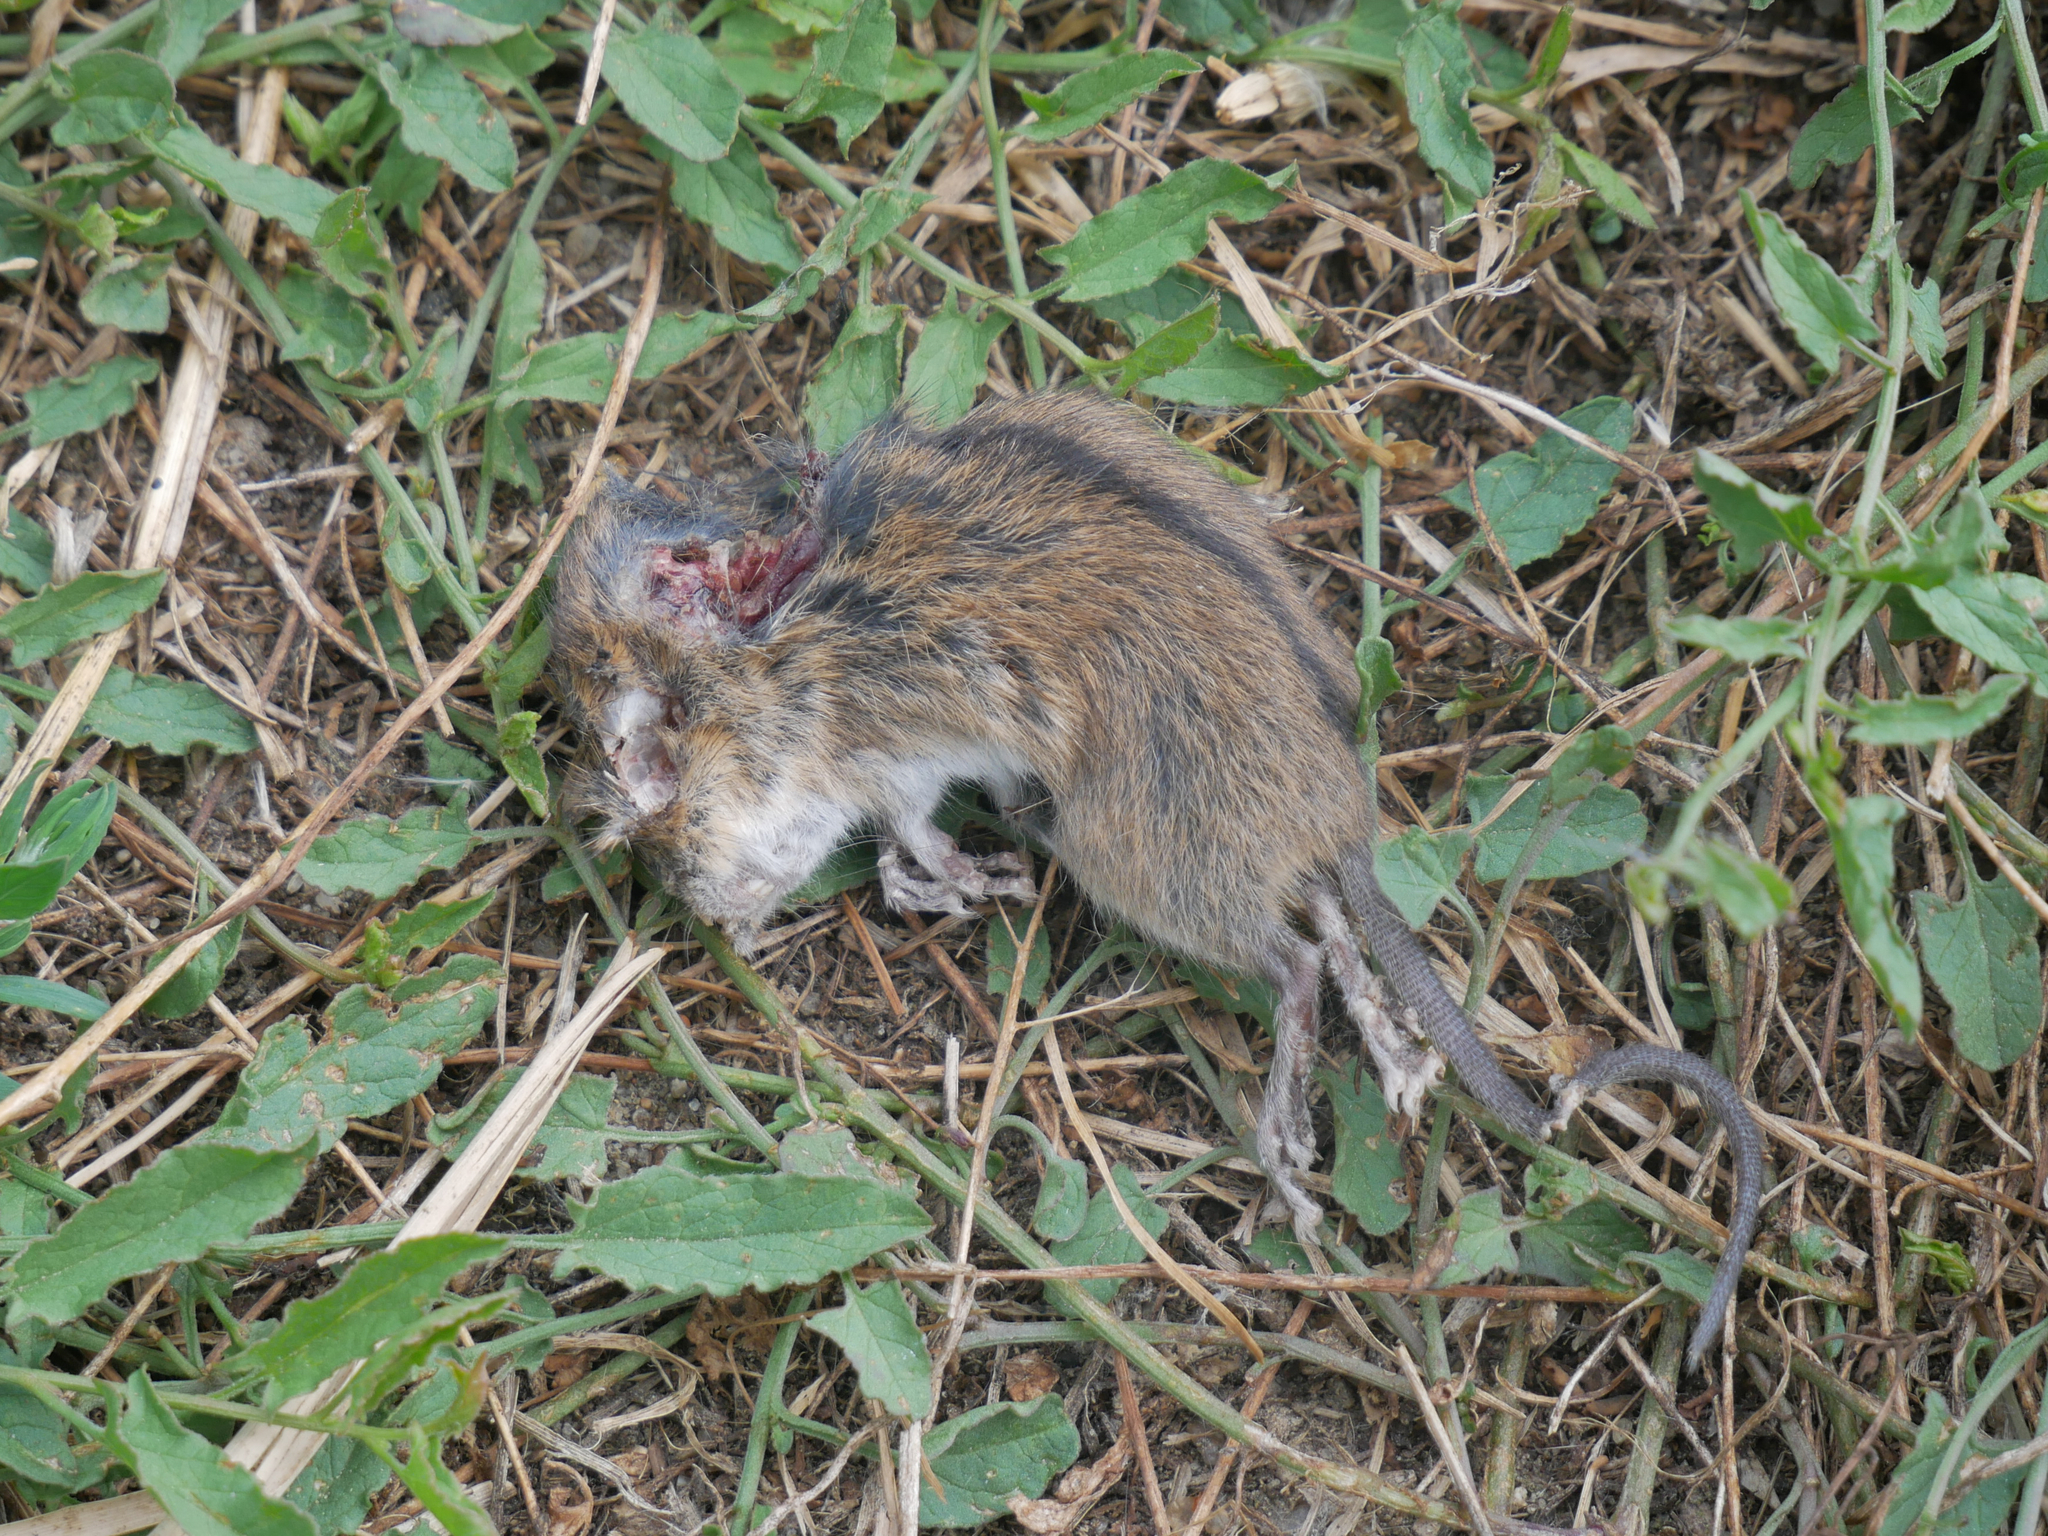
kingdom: Animalia
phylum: Chordata
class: Mammalia
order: Rodentia
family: Muridae
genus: Apodemus
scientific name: Apodemus agrarius
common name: Striped field mouse
